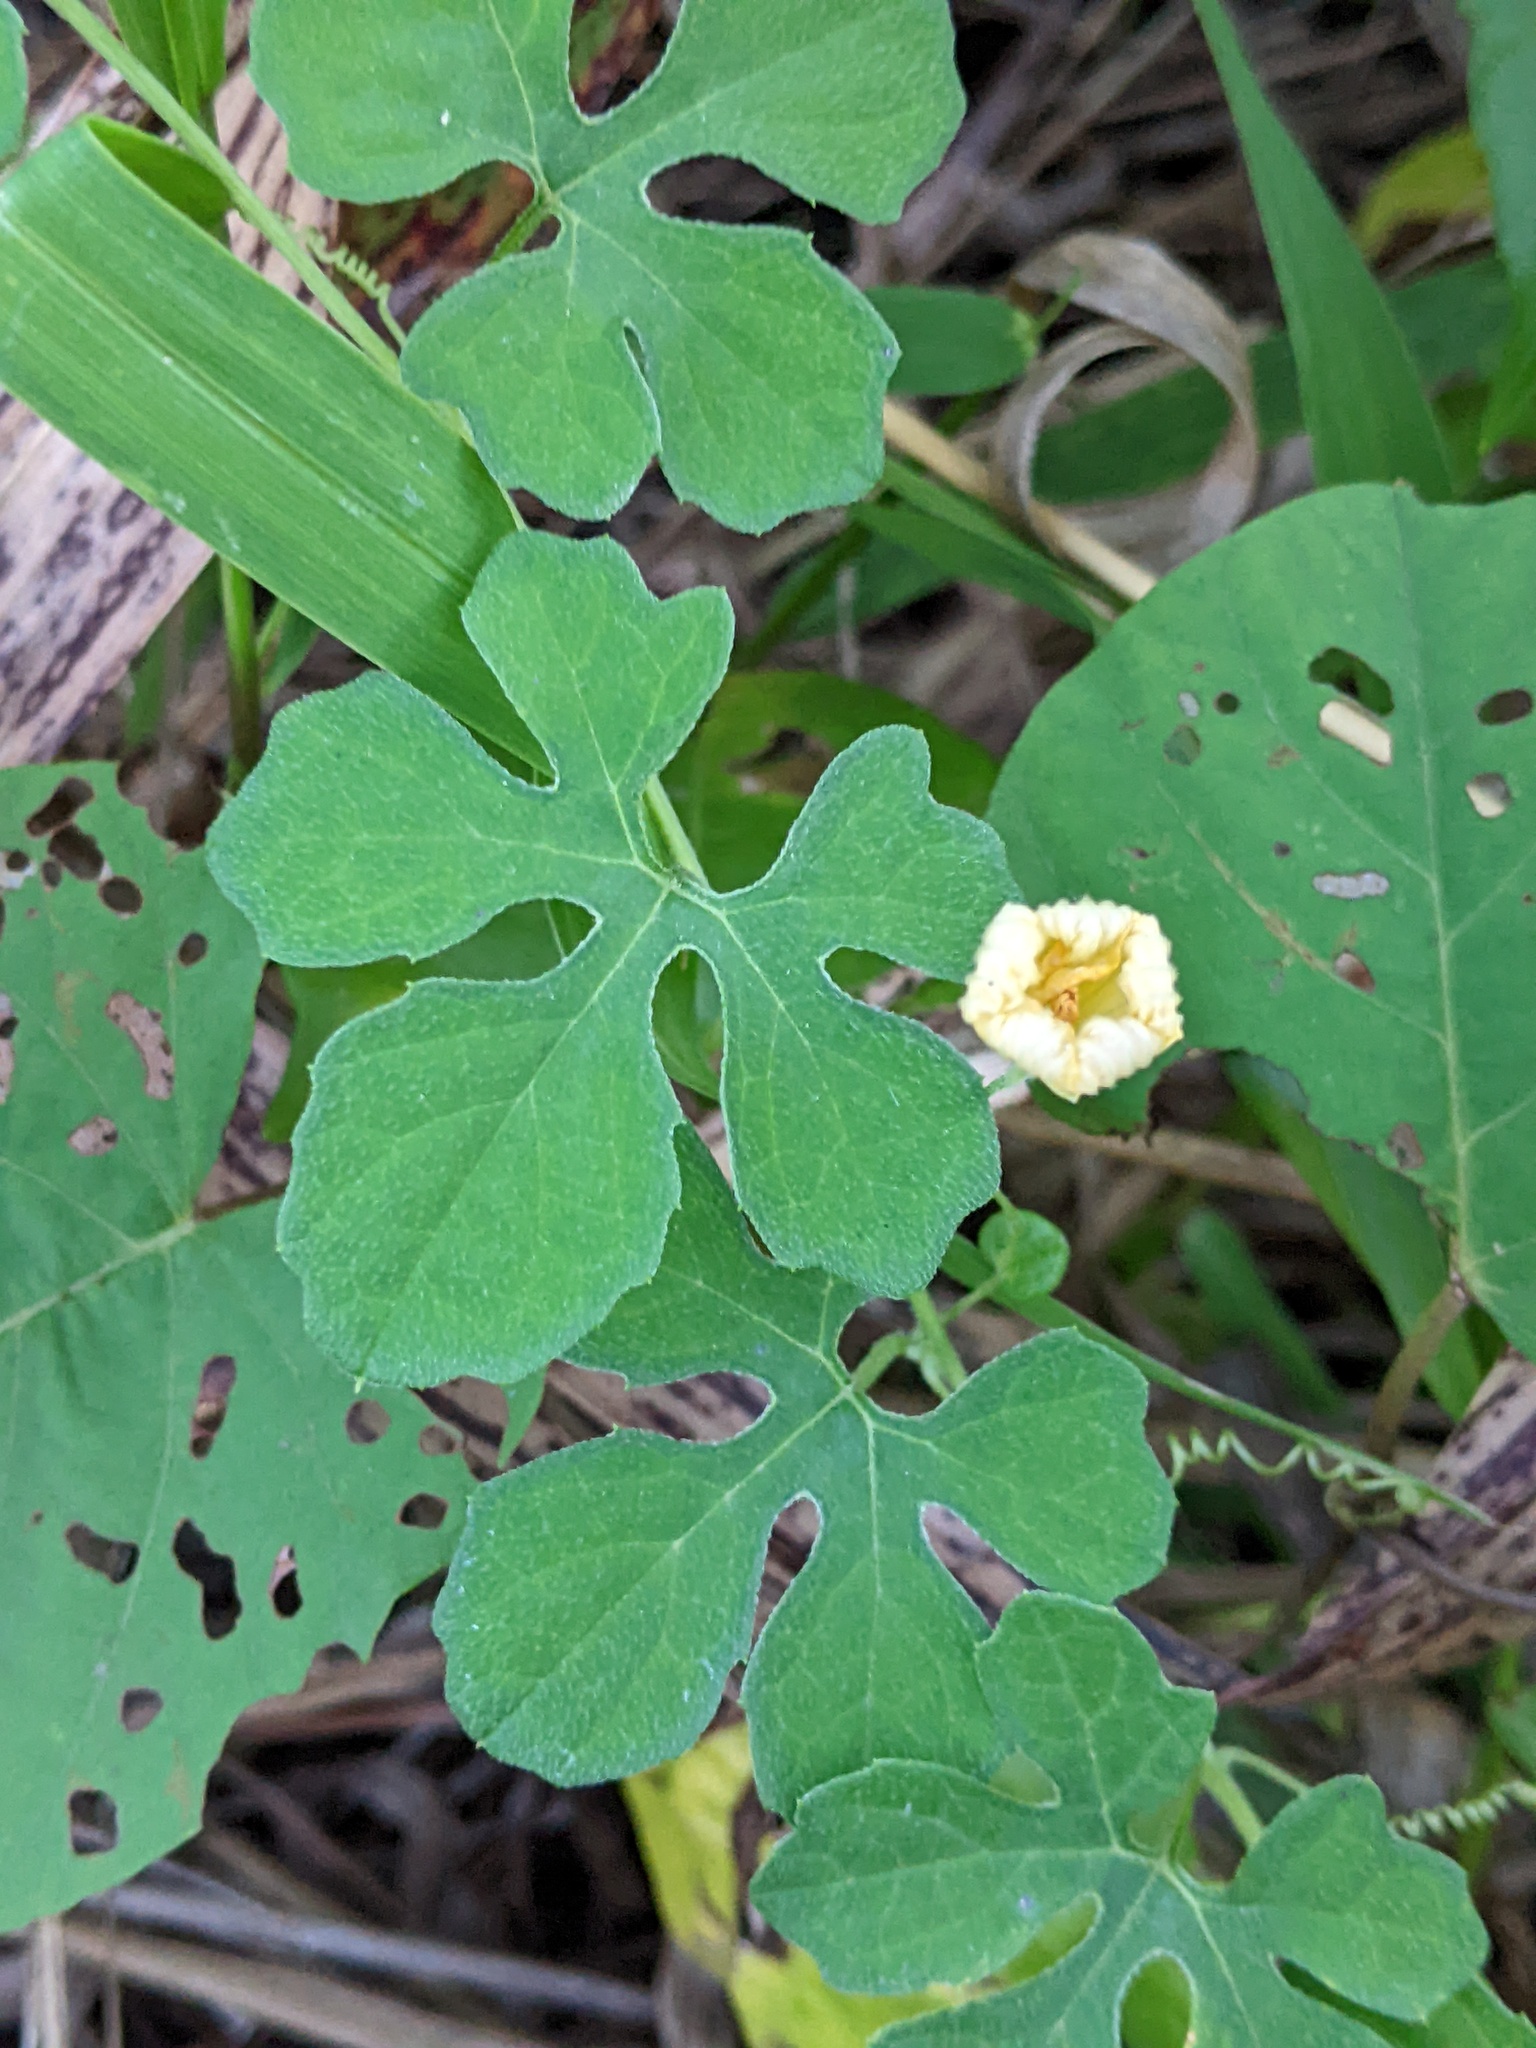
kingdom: Plantae
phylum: Tracheophyta
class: Magnoliopsida
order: Cucurbitales
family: Cucurbitaceae
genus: Momordica
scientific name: Momordica charantia
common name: Balsampear
